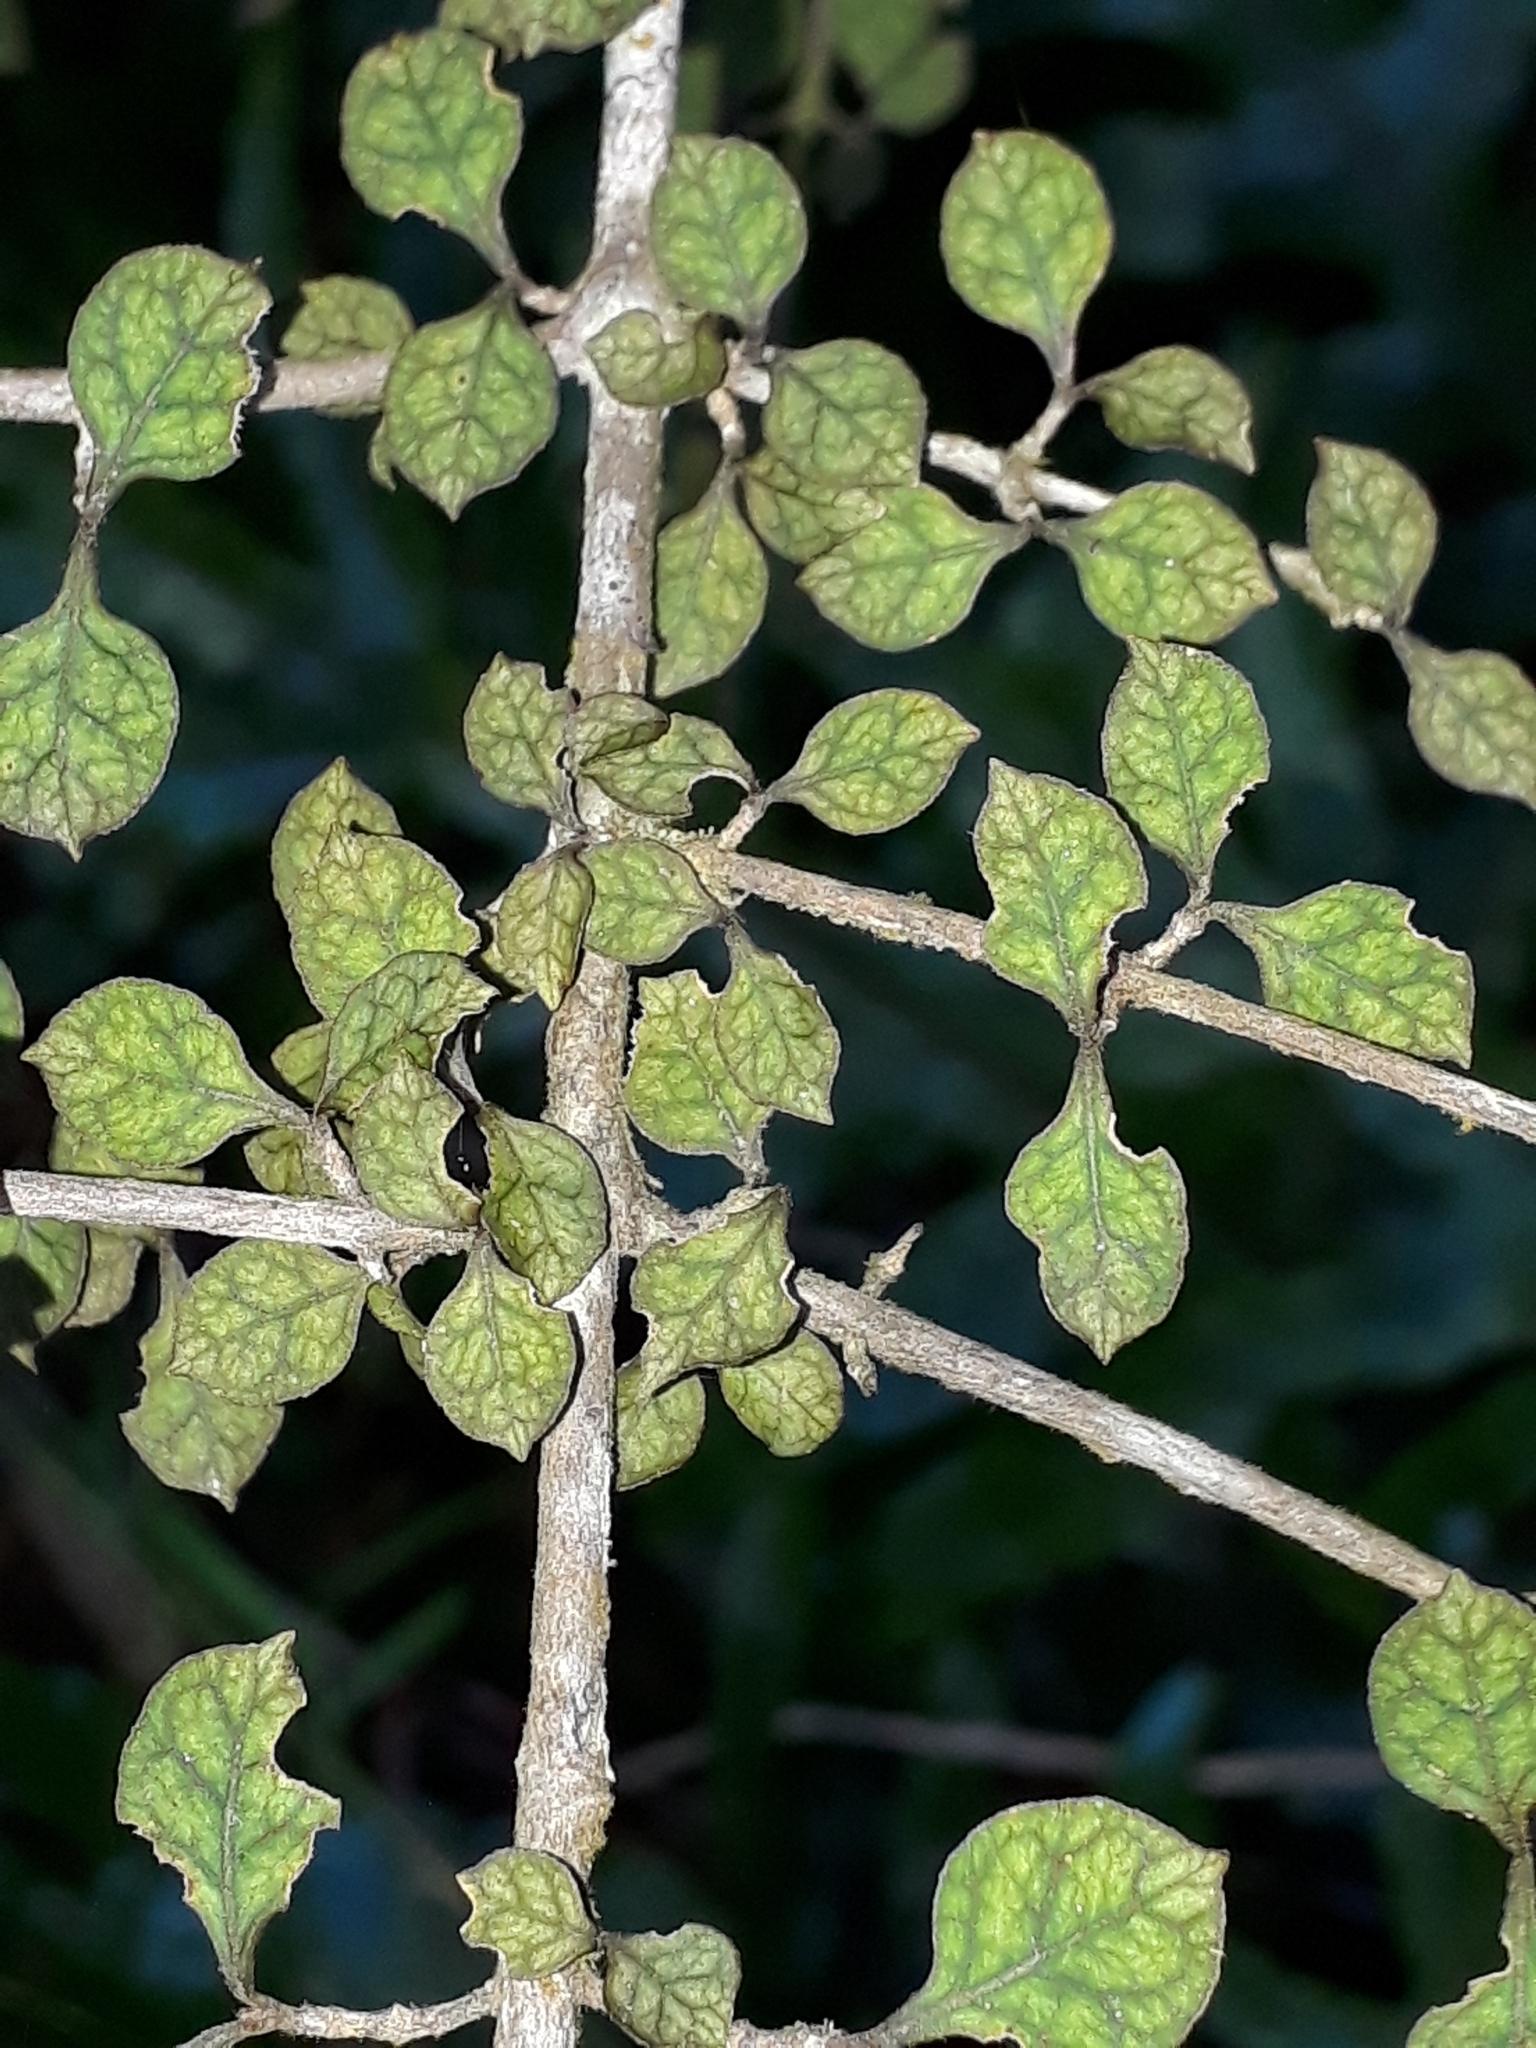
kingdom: Plantae
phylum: Tracheophyta
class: Magnoliopsida
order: Gentianales
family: Rubiaceae
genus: Coprosma
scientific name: Coprosma areolata
